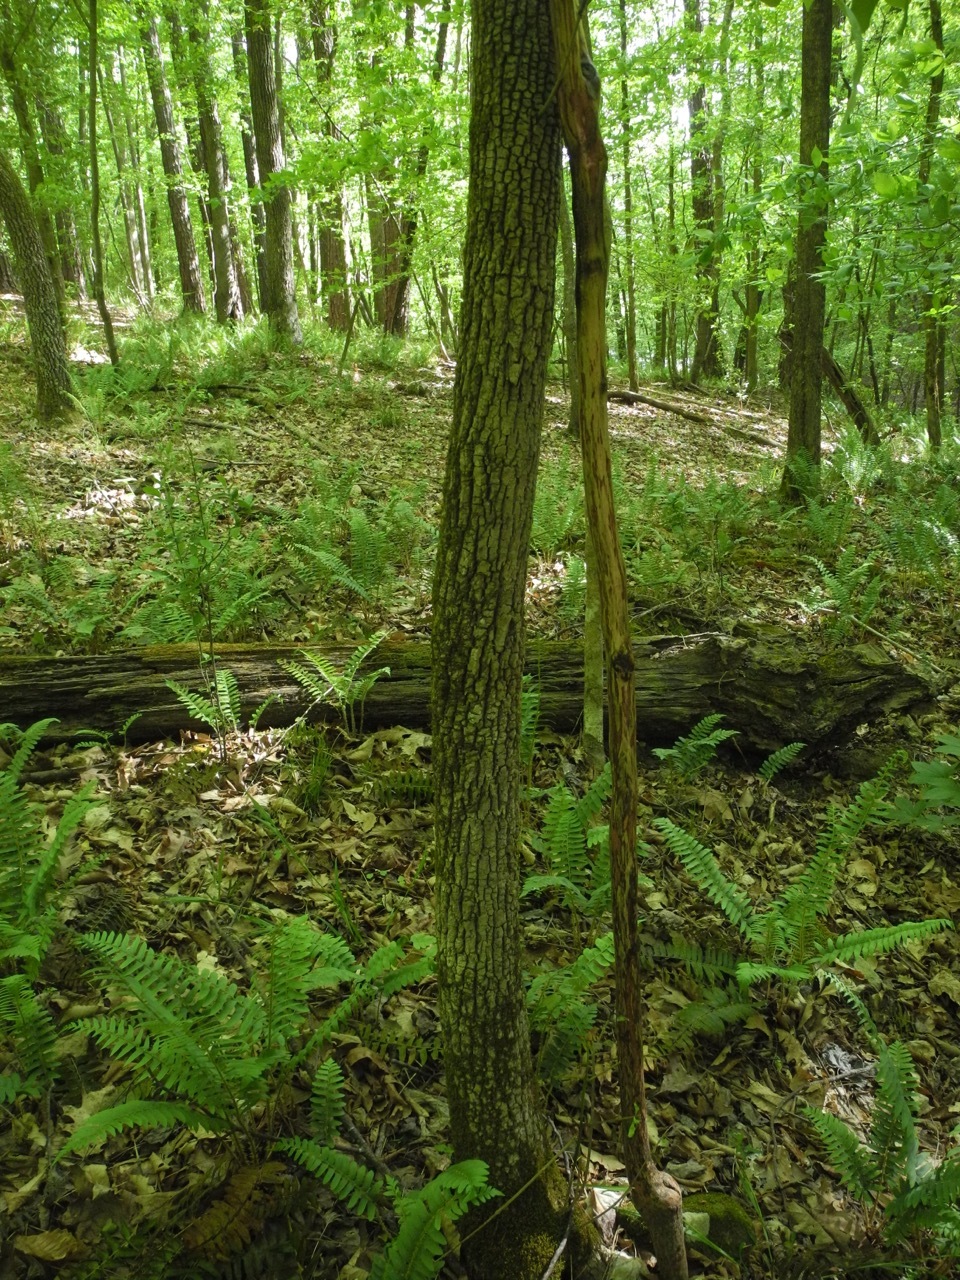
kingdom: Plantae
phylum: Tracheophyta
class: Magnoliopsida
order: Lamiales
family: Oleaceae
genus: Fraxinus
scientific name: Fraxinus pennsylvanica
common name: Green ash
